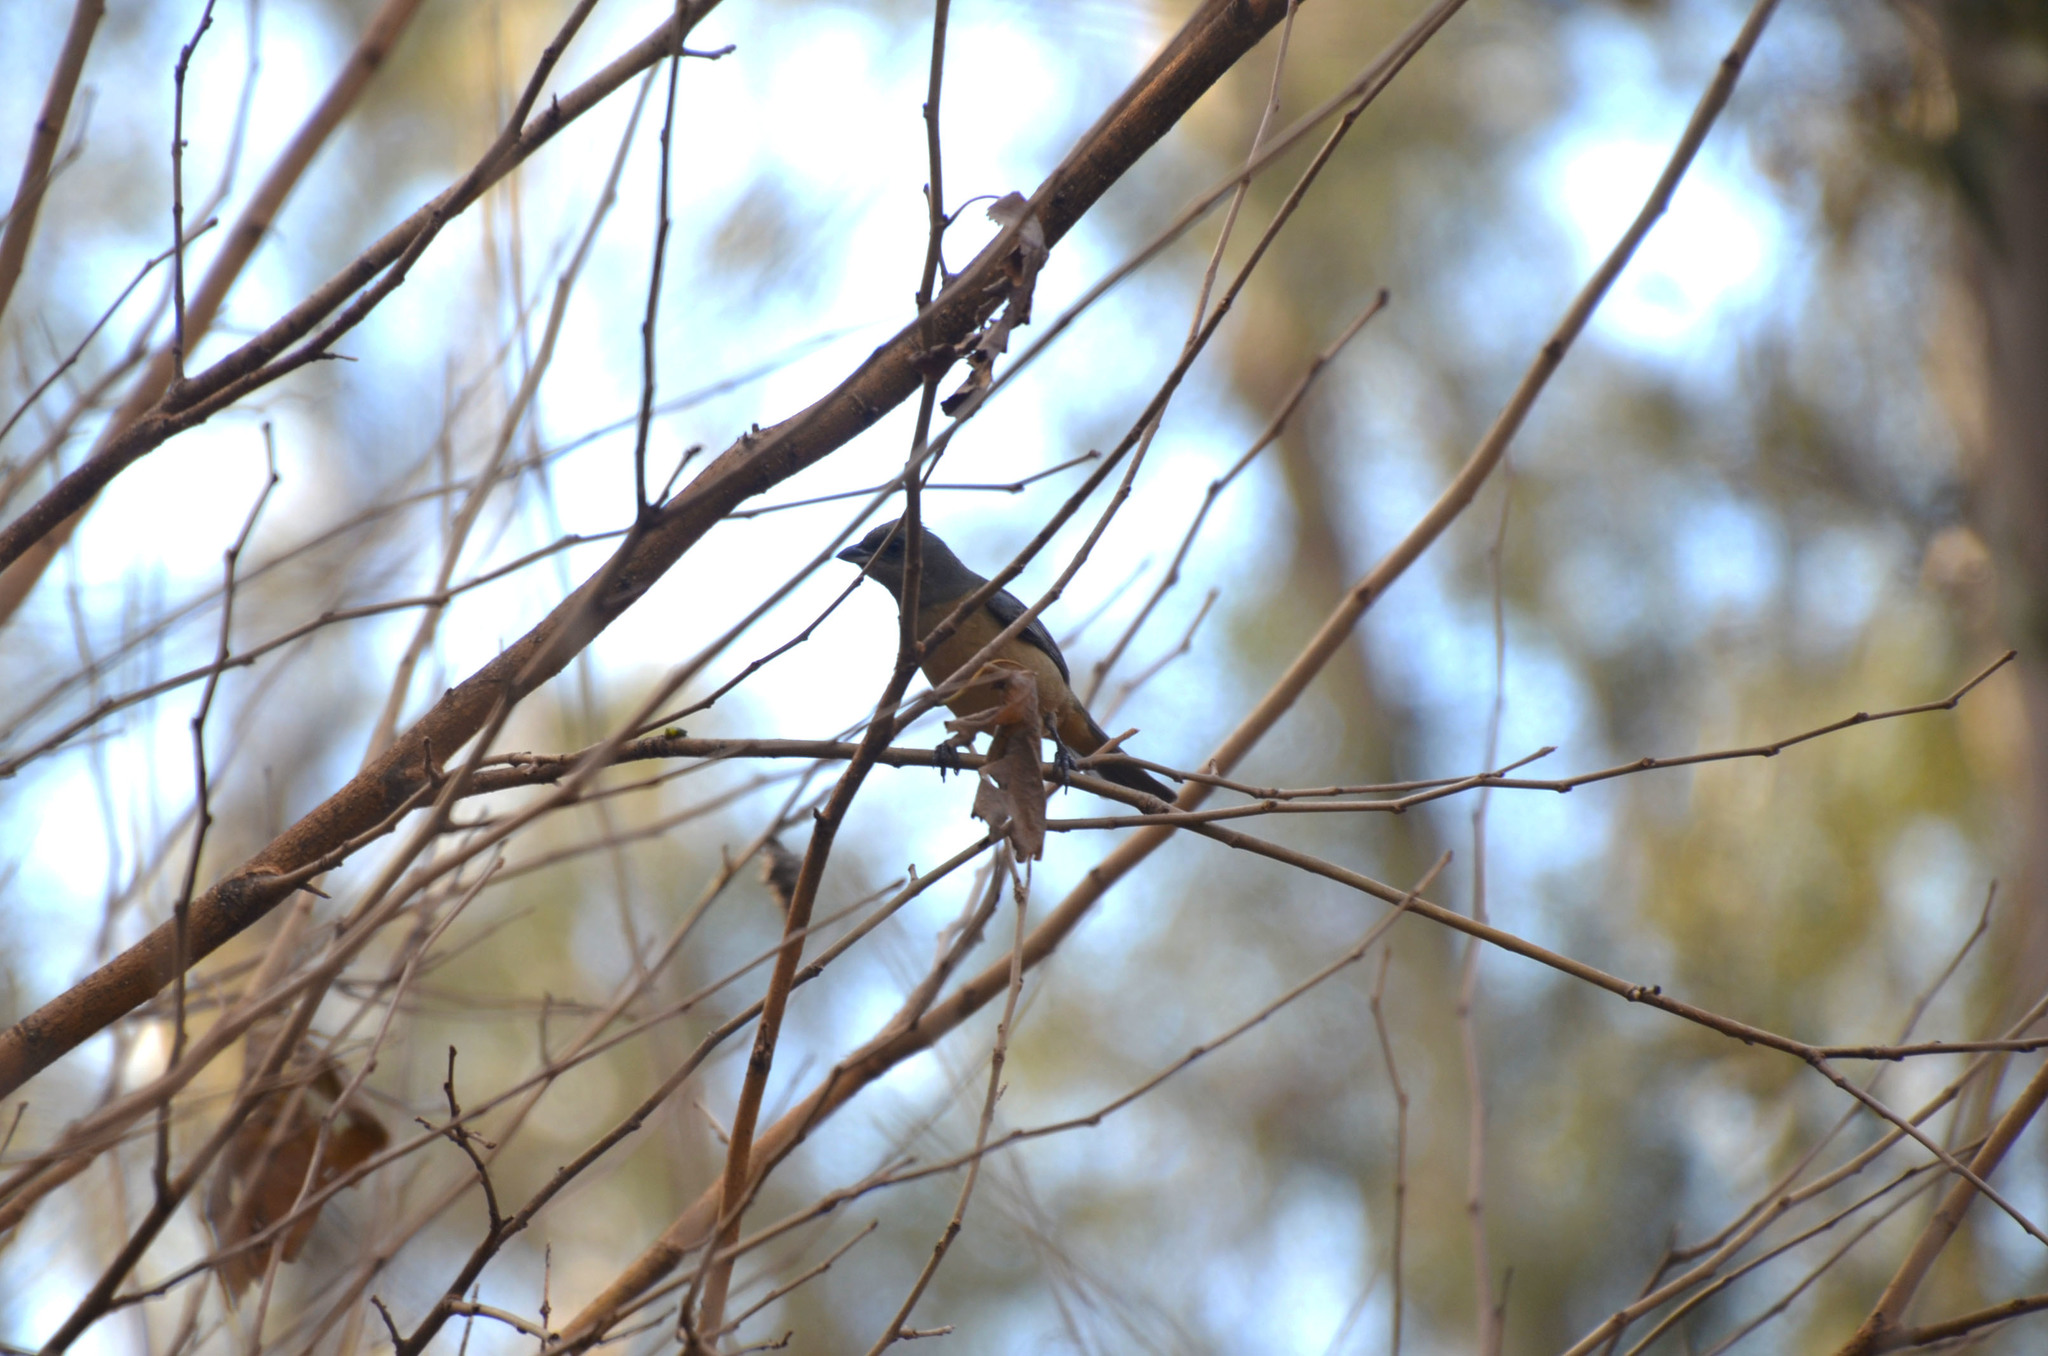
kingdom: Animalia
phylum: Chordata
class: Aves
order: Passeriformes
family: Thraupidae
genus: Rauenia
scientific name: Rauenia bonariensis
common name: Blue-and-yellow tanager
